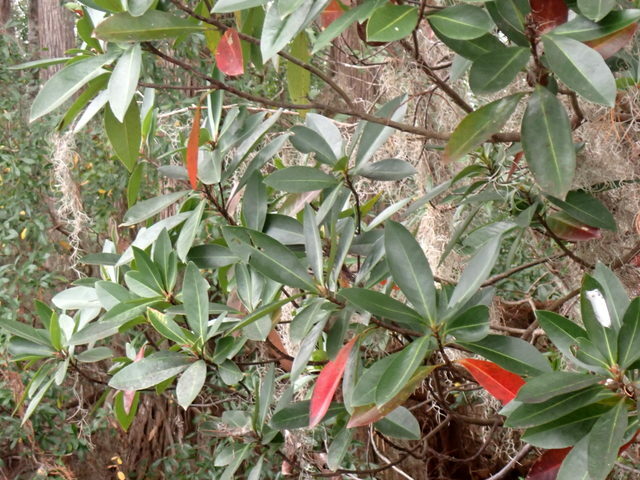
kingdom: Plantae
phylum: Tracheophyta
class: Magnoliopsida
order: Ericales
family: Theaceae
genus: Gordonia
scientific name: Gordonia lasianthus
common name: Loblolly bay
